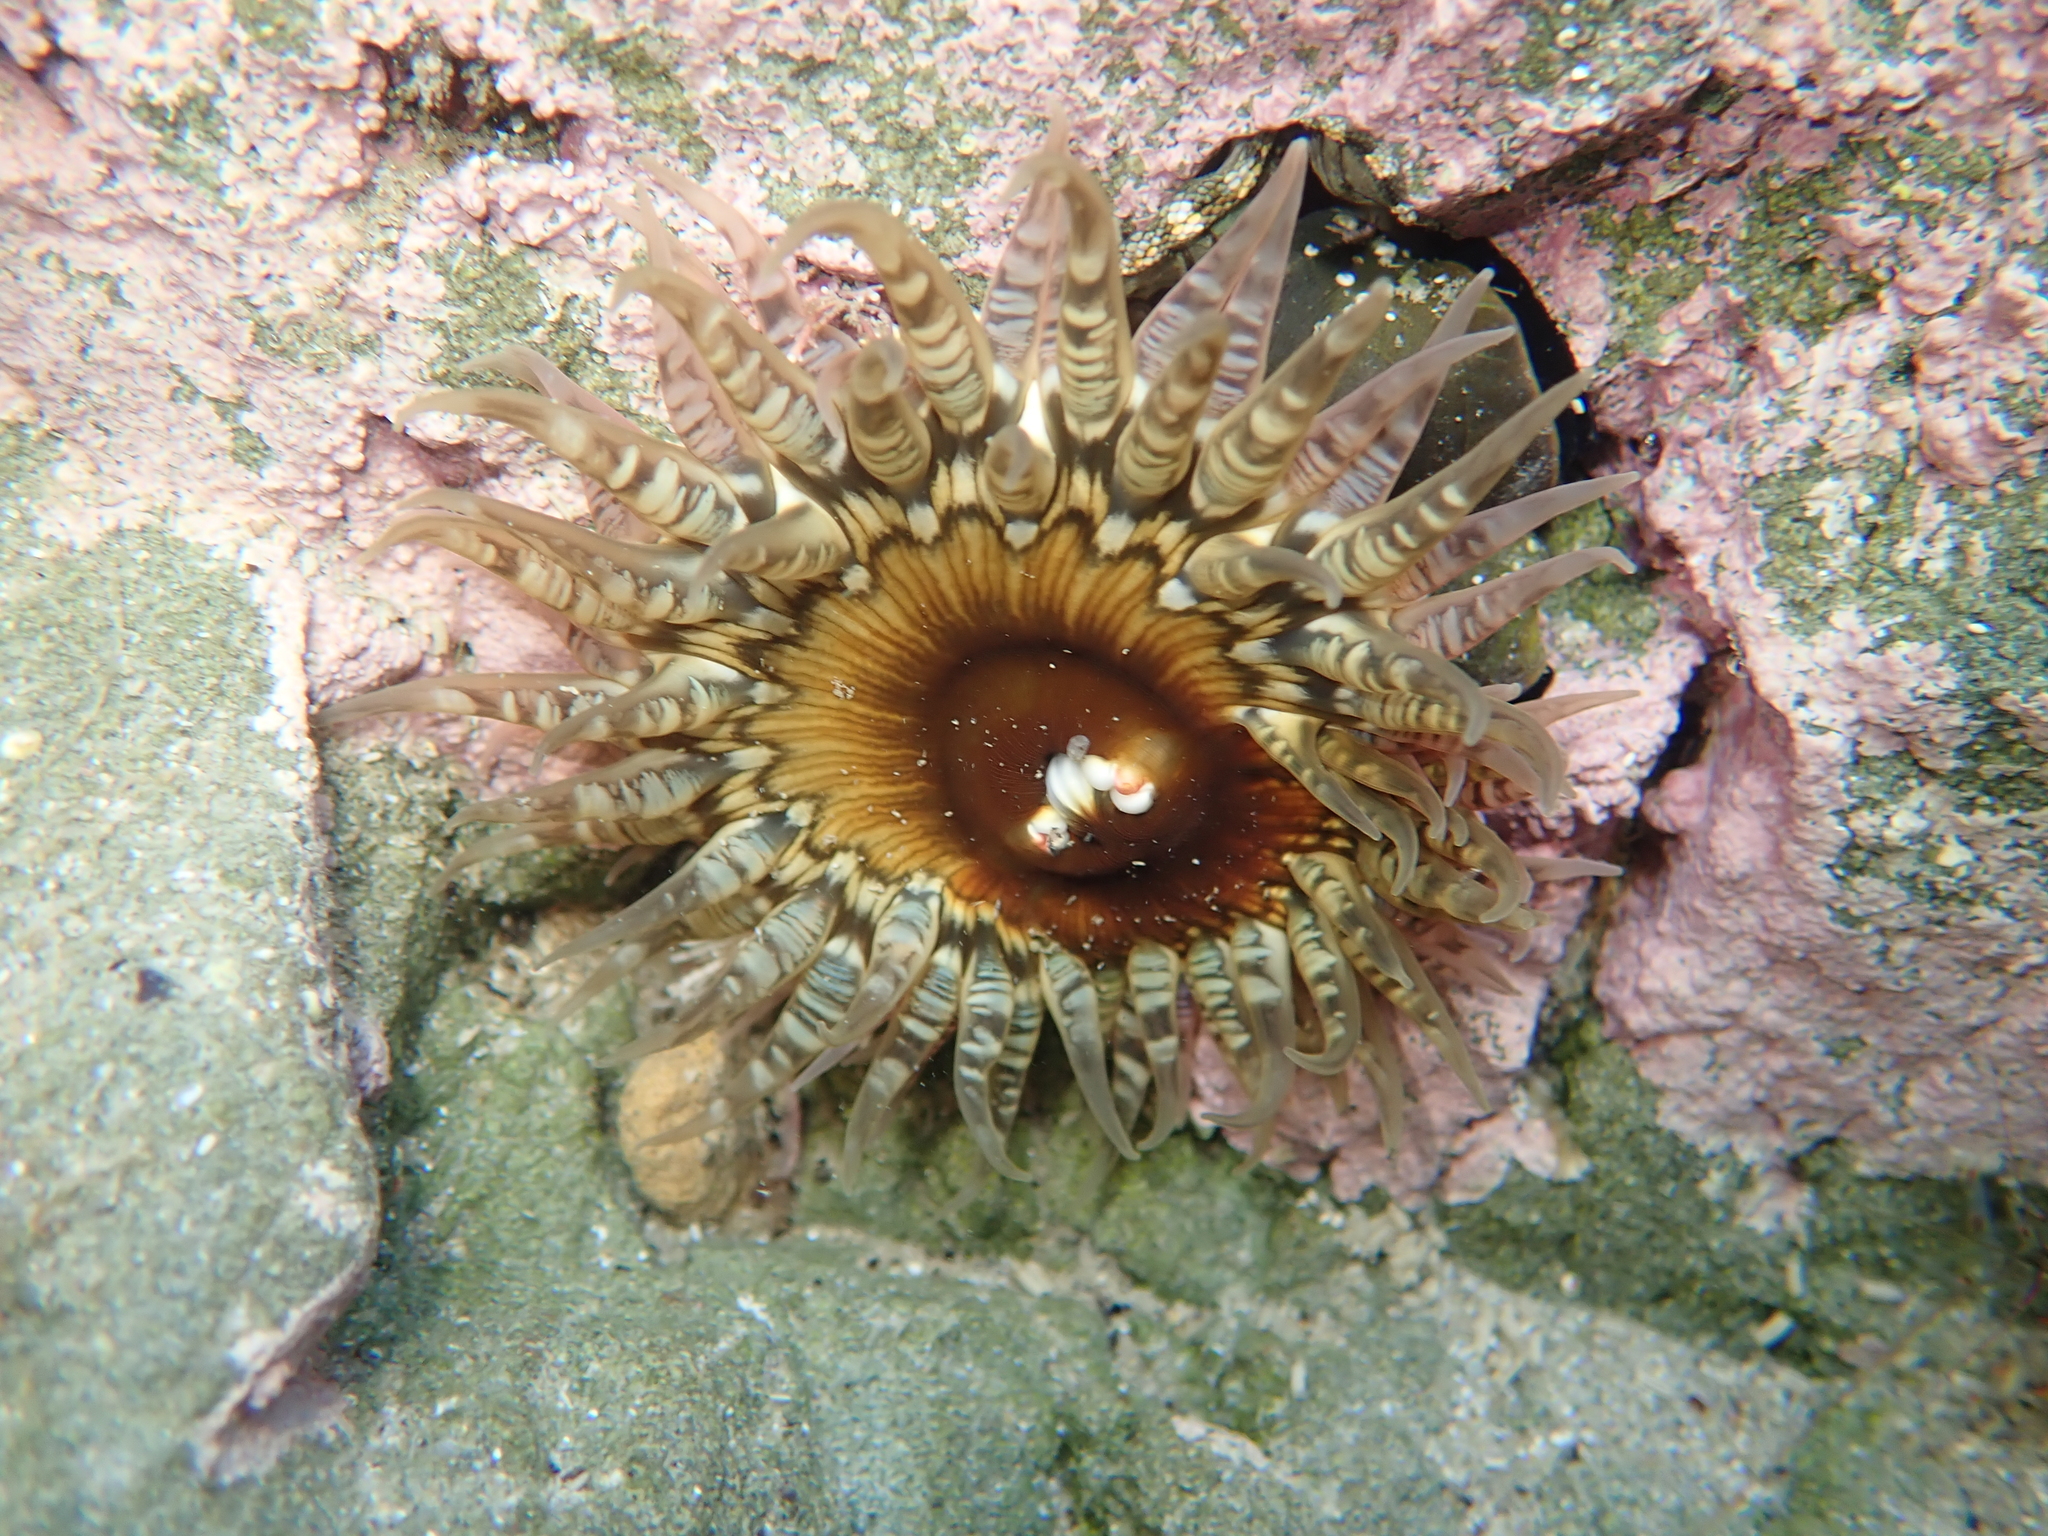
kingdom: Animalia
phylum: Cnidaria
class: Anthozoa
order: Actiniaria
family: Actiniidae
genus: Oulactis
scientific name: Oulactis muscosa
